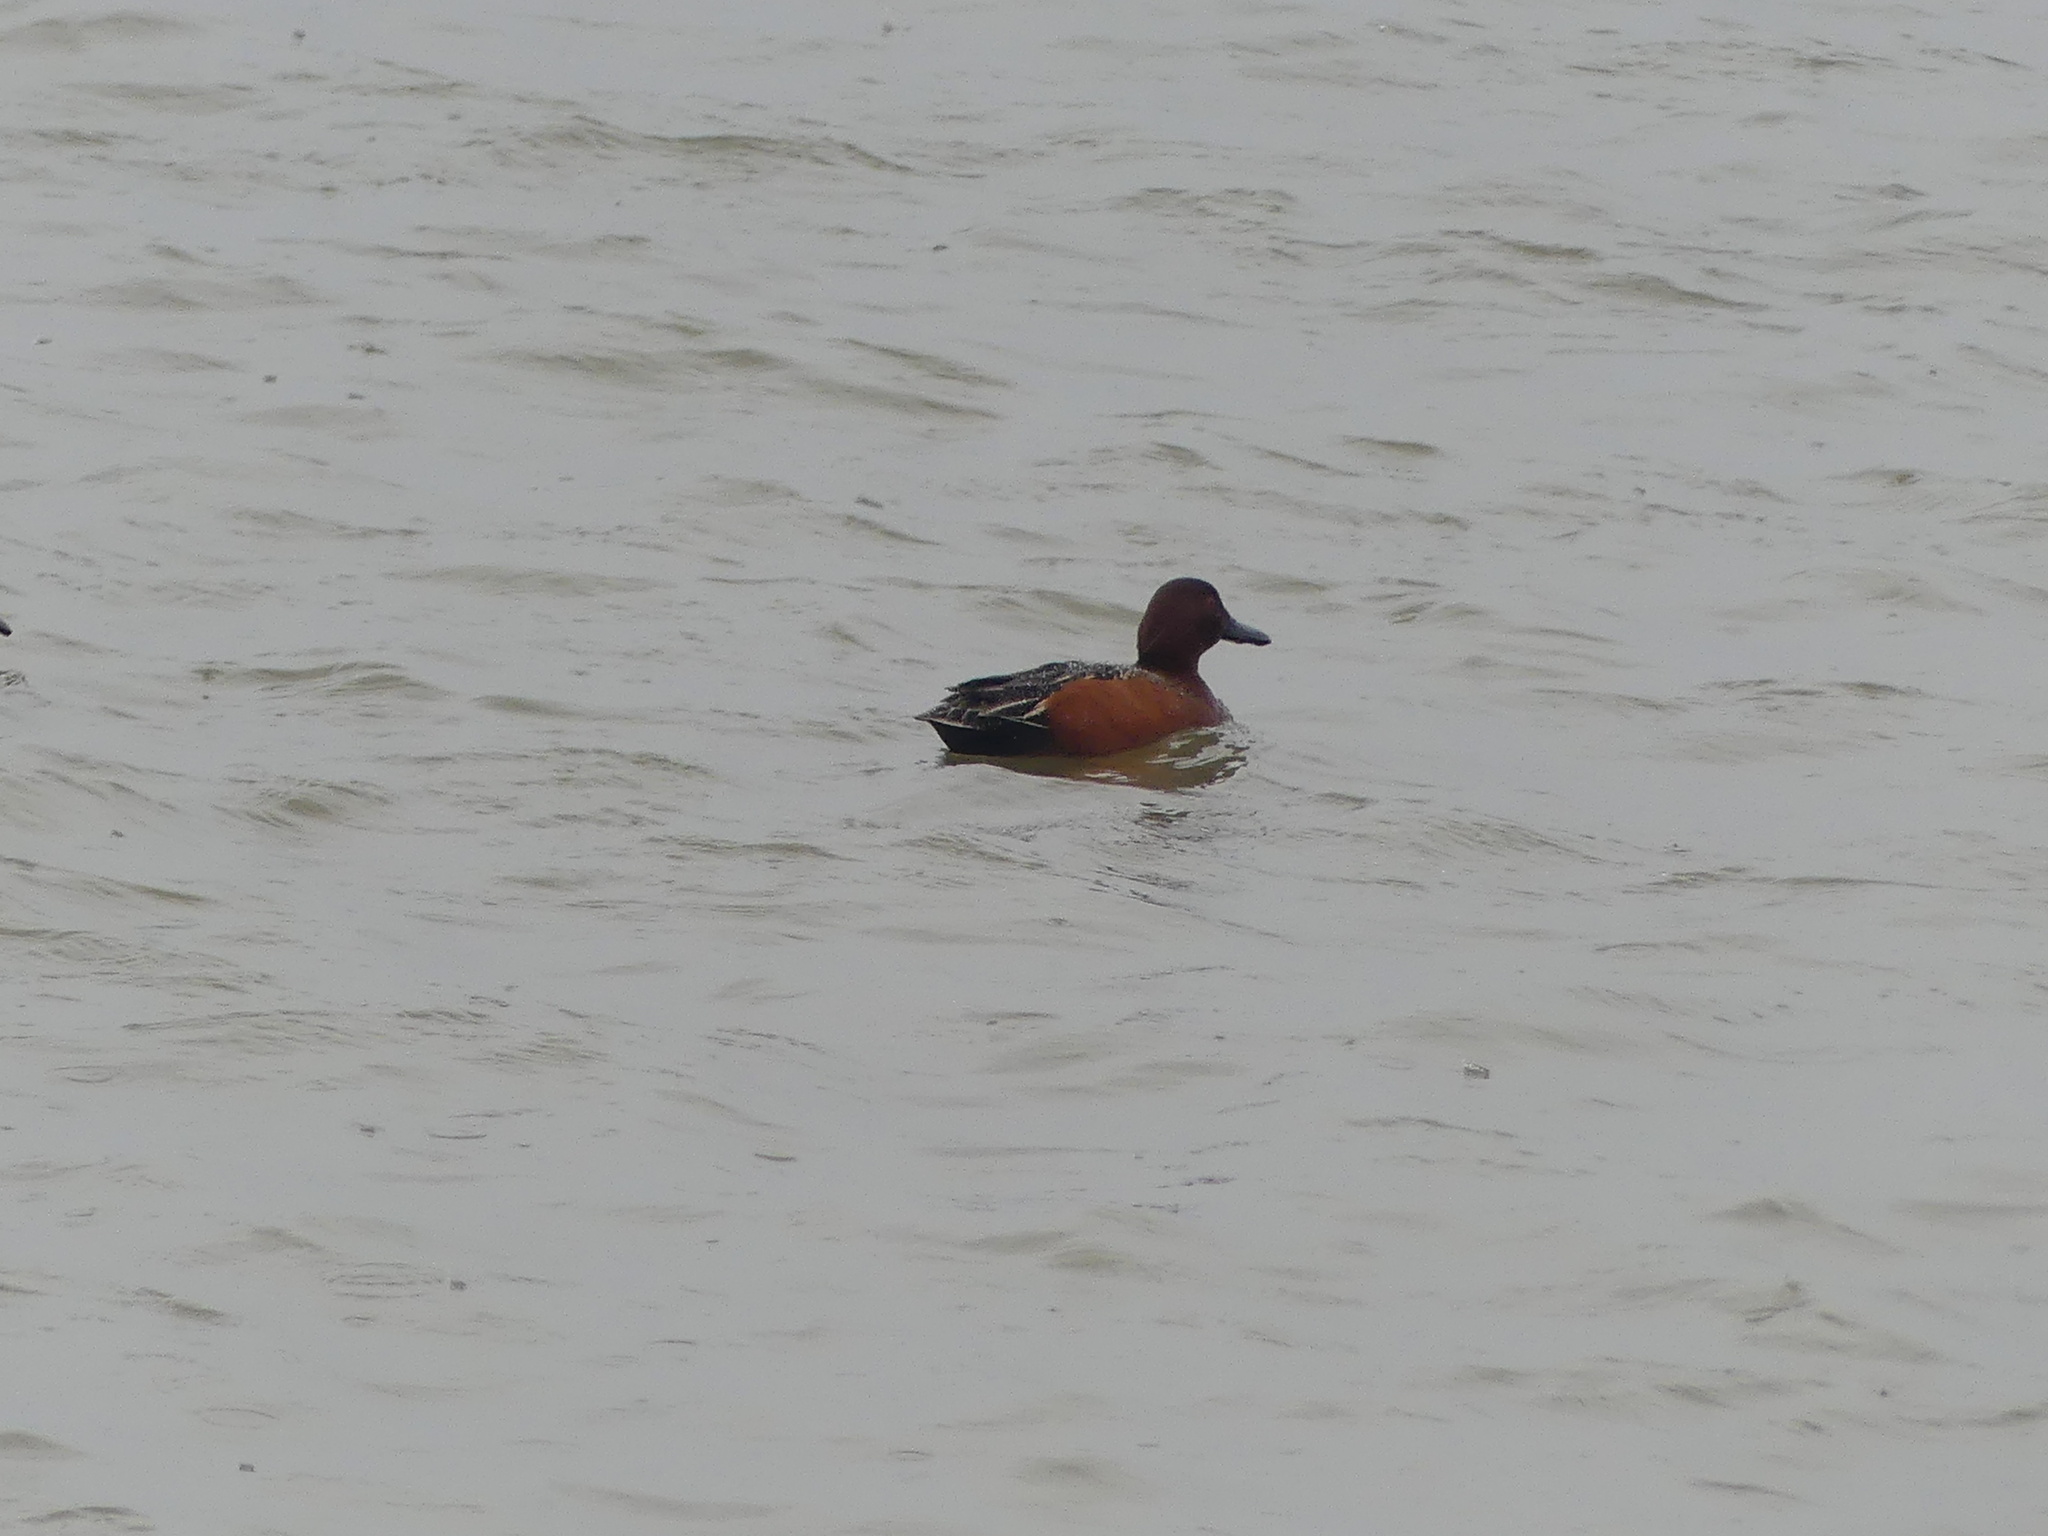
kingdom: Animalia
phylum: Chordata
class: Aves
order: Anseriformes
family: Anatidae
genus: Spatula
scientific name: Spatula cyanoptera
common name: Cinnamon teal
